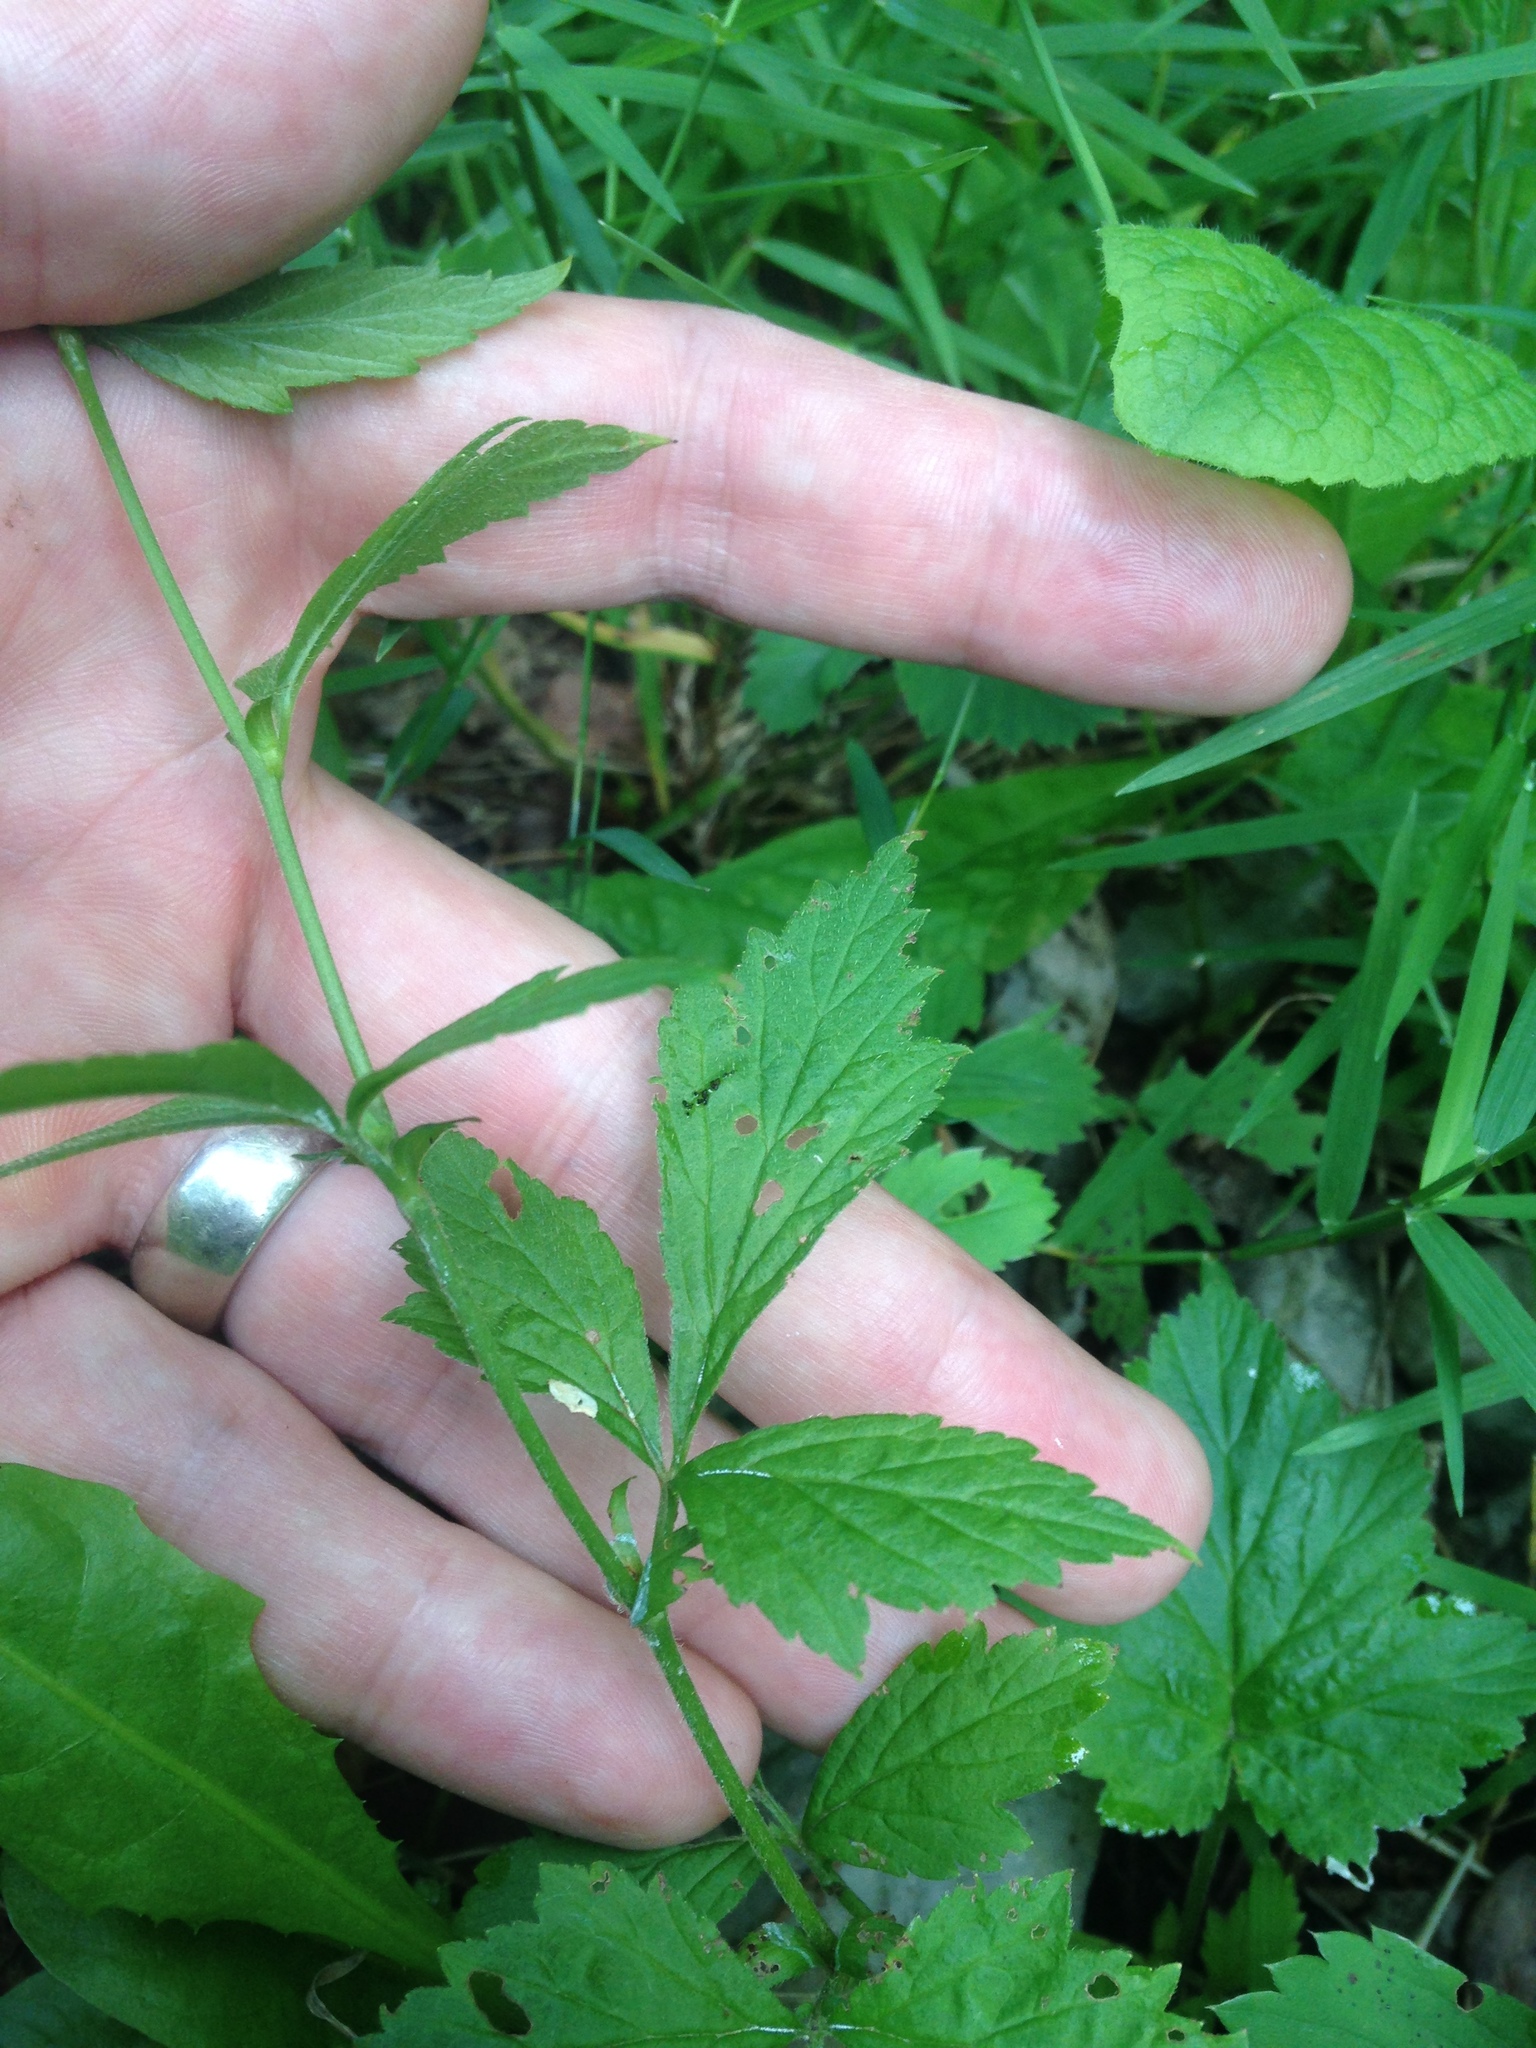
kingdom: Plantae
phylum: Tracheophyta
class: Magnoliopsida
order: Rosales
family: Rosaceae
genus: Geum
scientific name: Geum canadense
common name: White avens
